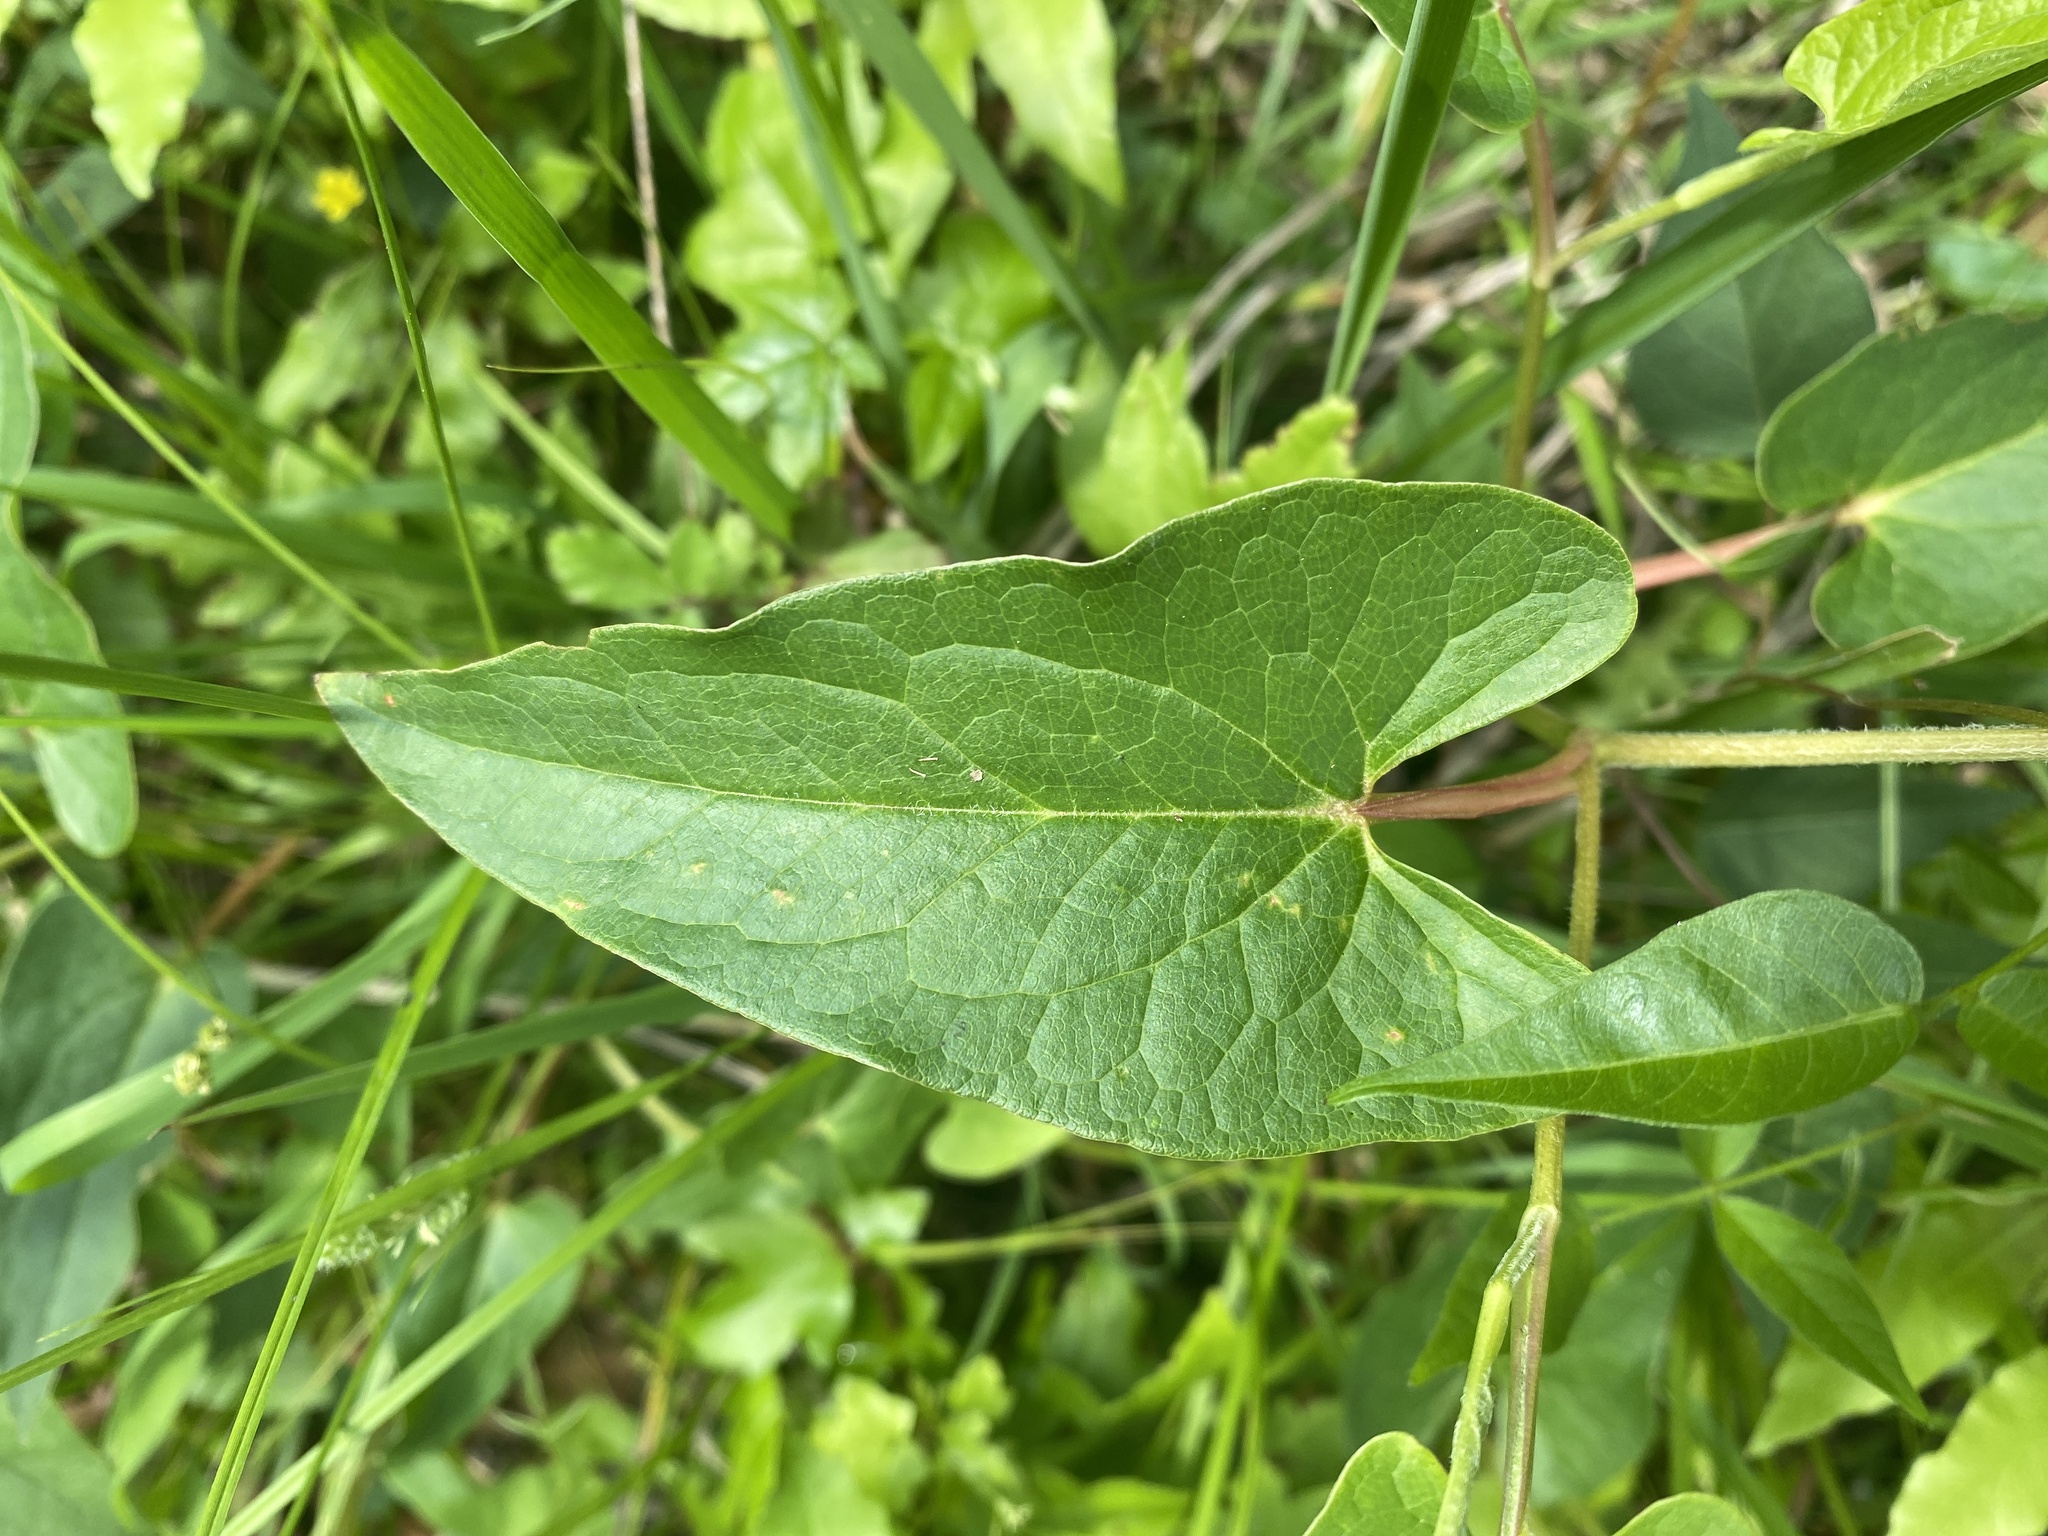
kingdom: Plantae
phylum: Tracheophyta
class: Magnoliopsida
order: Piperales
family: Saururaceae
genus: Saururus
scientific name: Saururus cernuus
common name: Lizard's-tail
